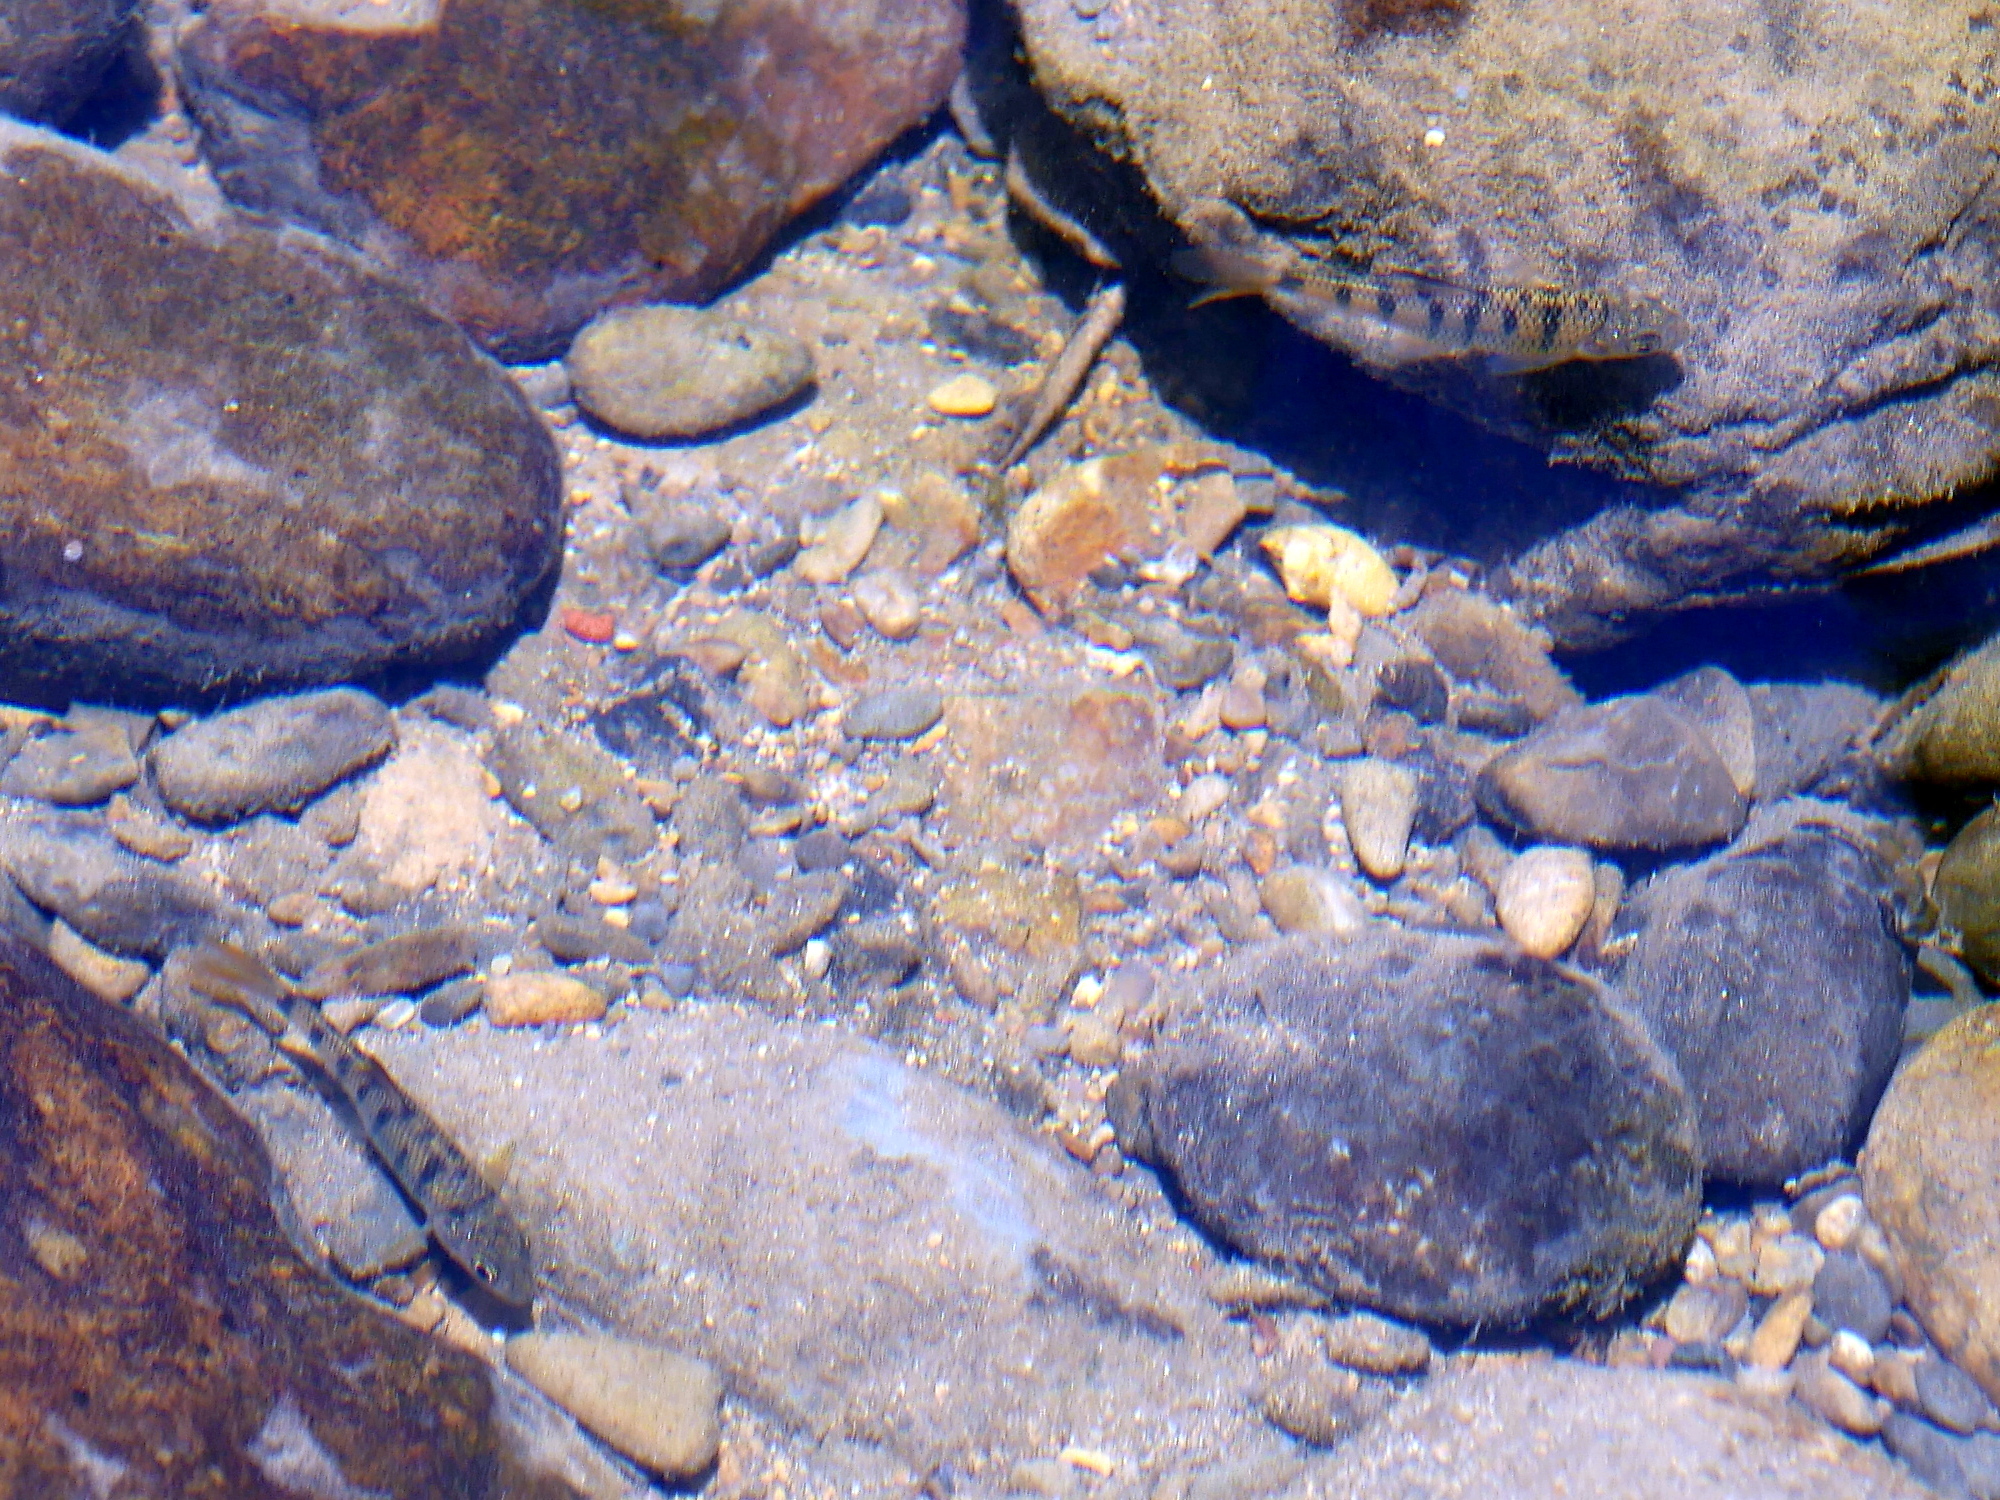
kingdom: Animalia
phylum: Chordata
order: Cypriniformes
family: Cyprinidae
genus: Acrossocheilus
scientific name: Acrossocheilus paradoxus
